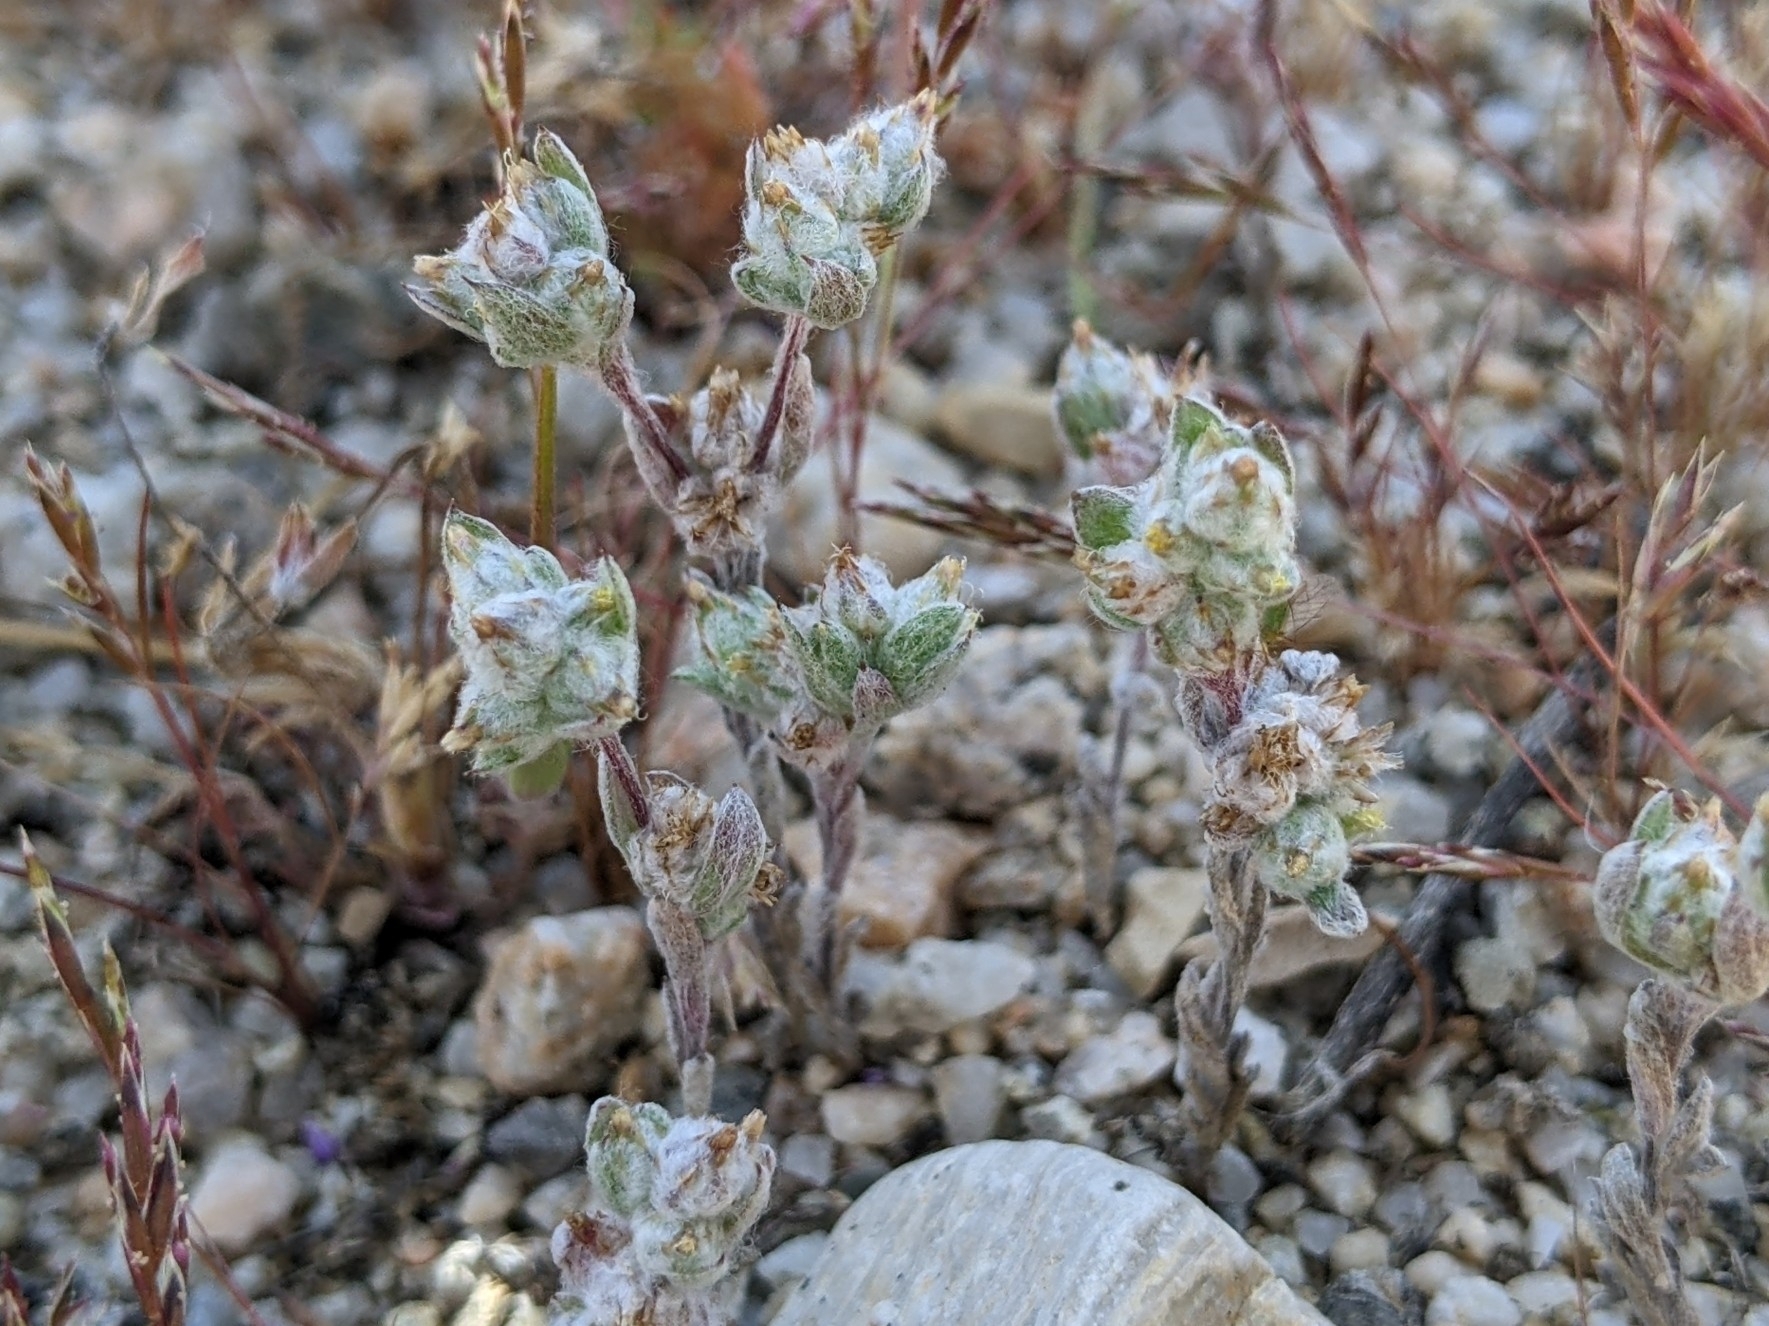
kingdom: Plantae
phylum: Tracheophyta
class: Magnoliopsida
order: Asterales
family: Asteraceae
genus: Logfia
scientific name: Logfia californica
